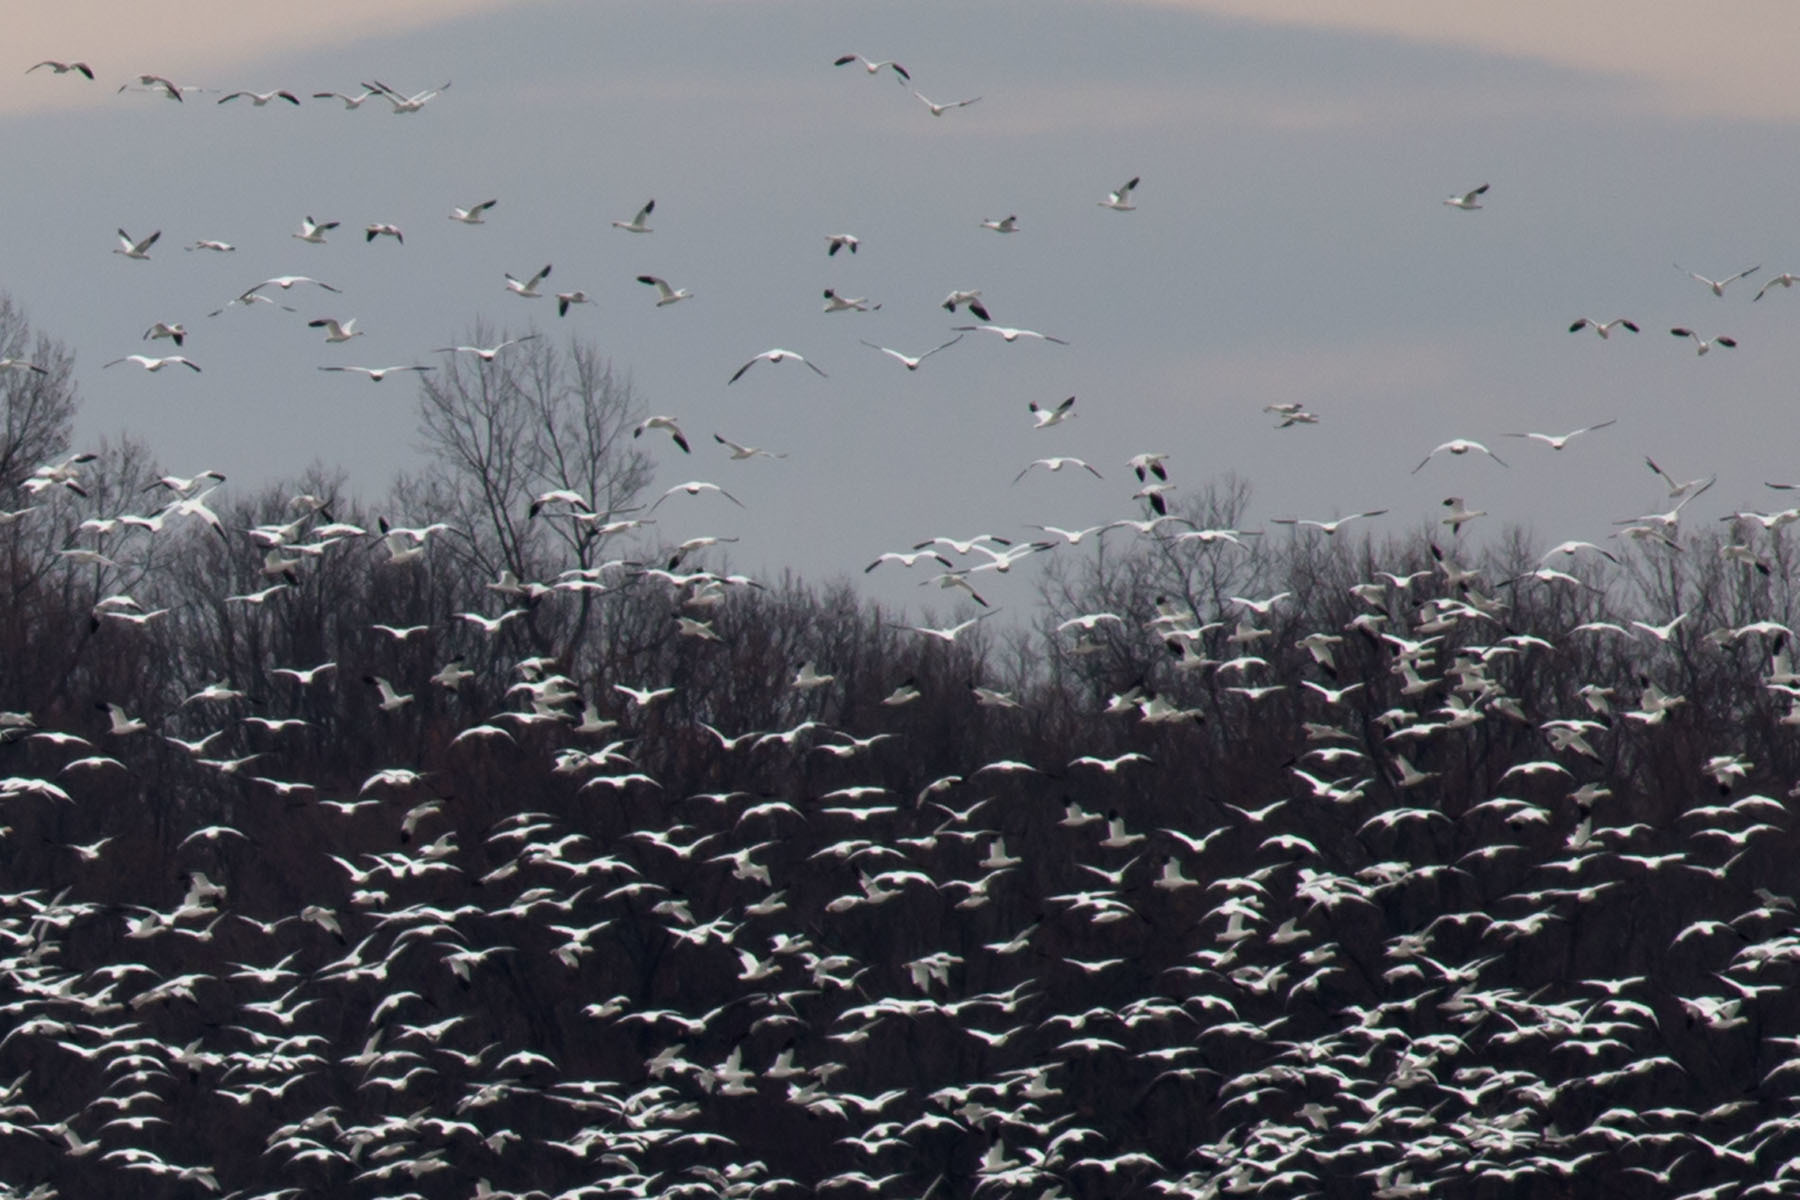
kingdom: Animalia
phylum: Chordata
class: Aves
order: Anseriformes
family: Anatidae
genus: Anser
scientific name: Anser caerulescens
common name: Snow goose
